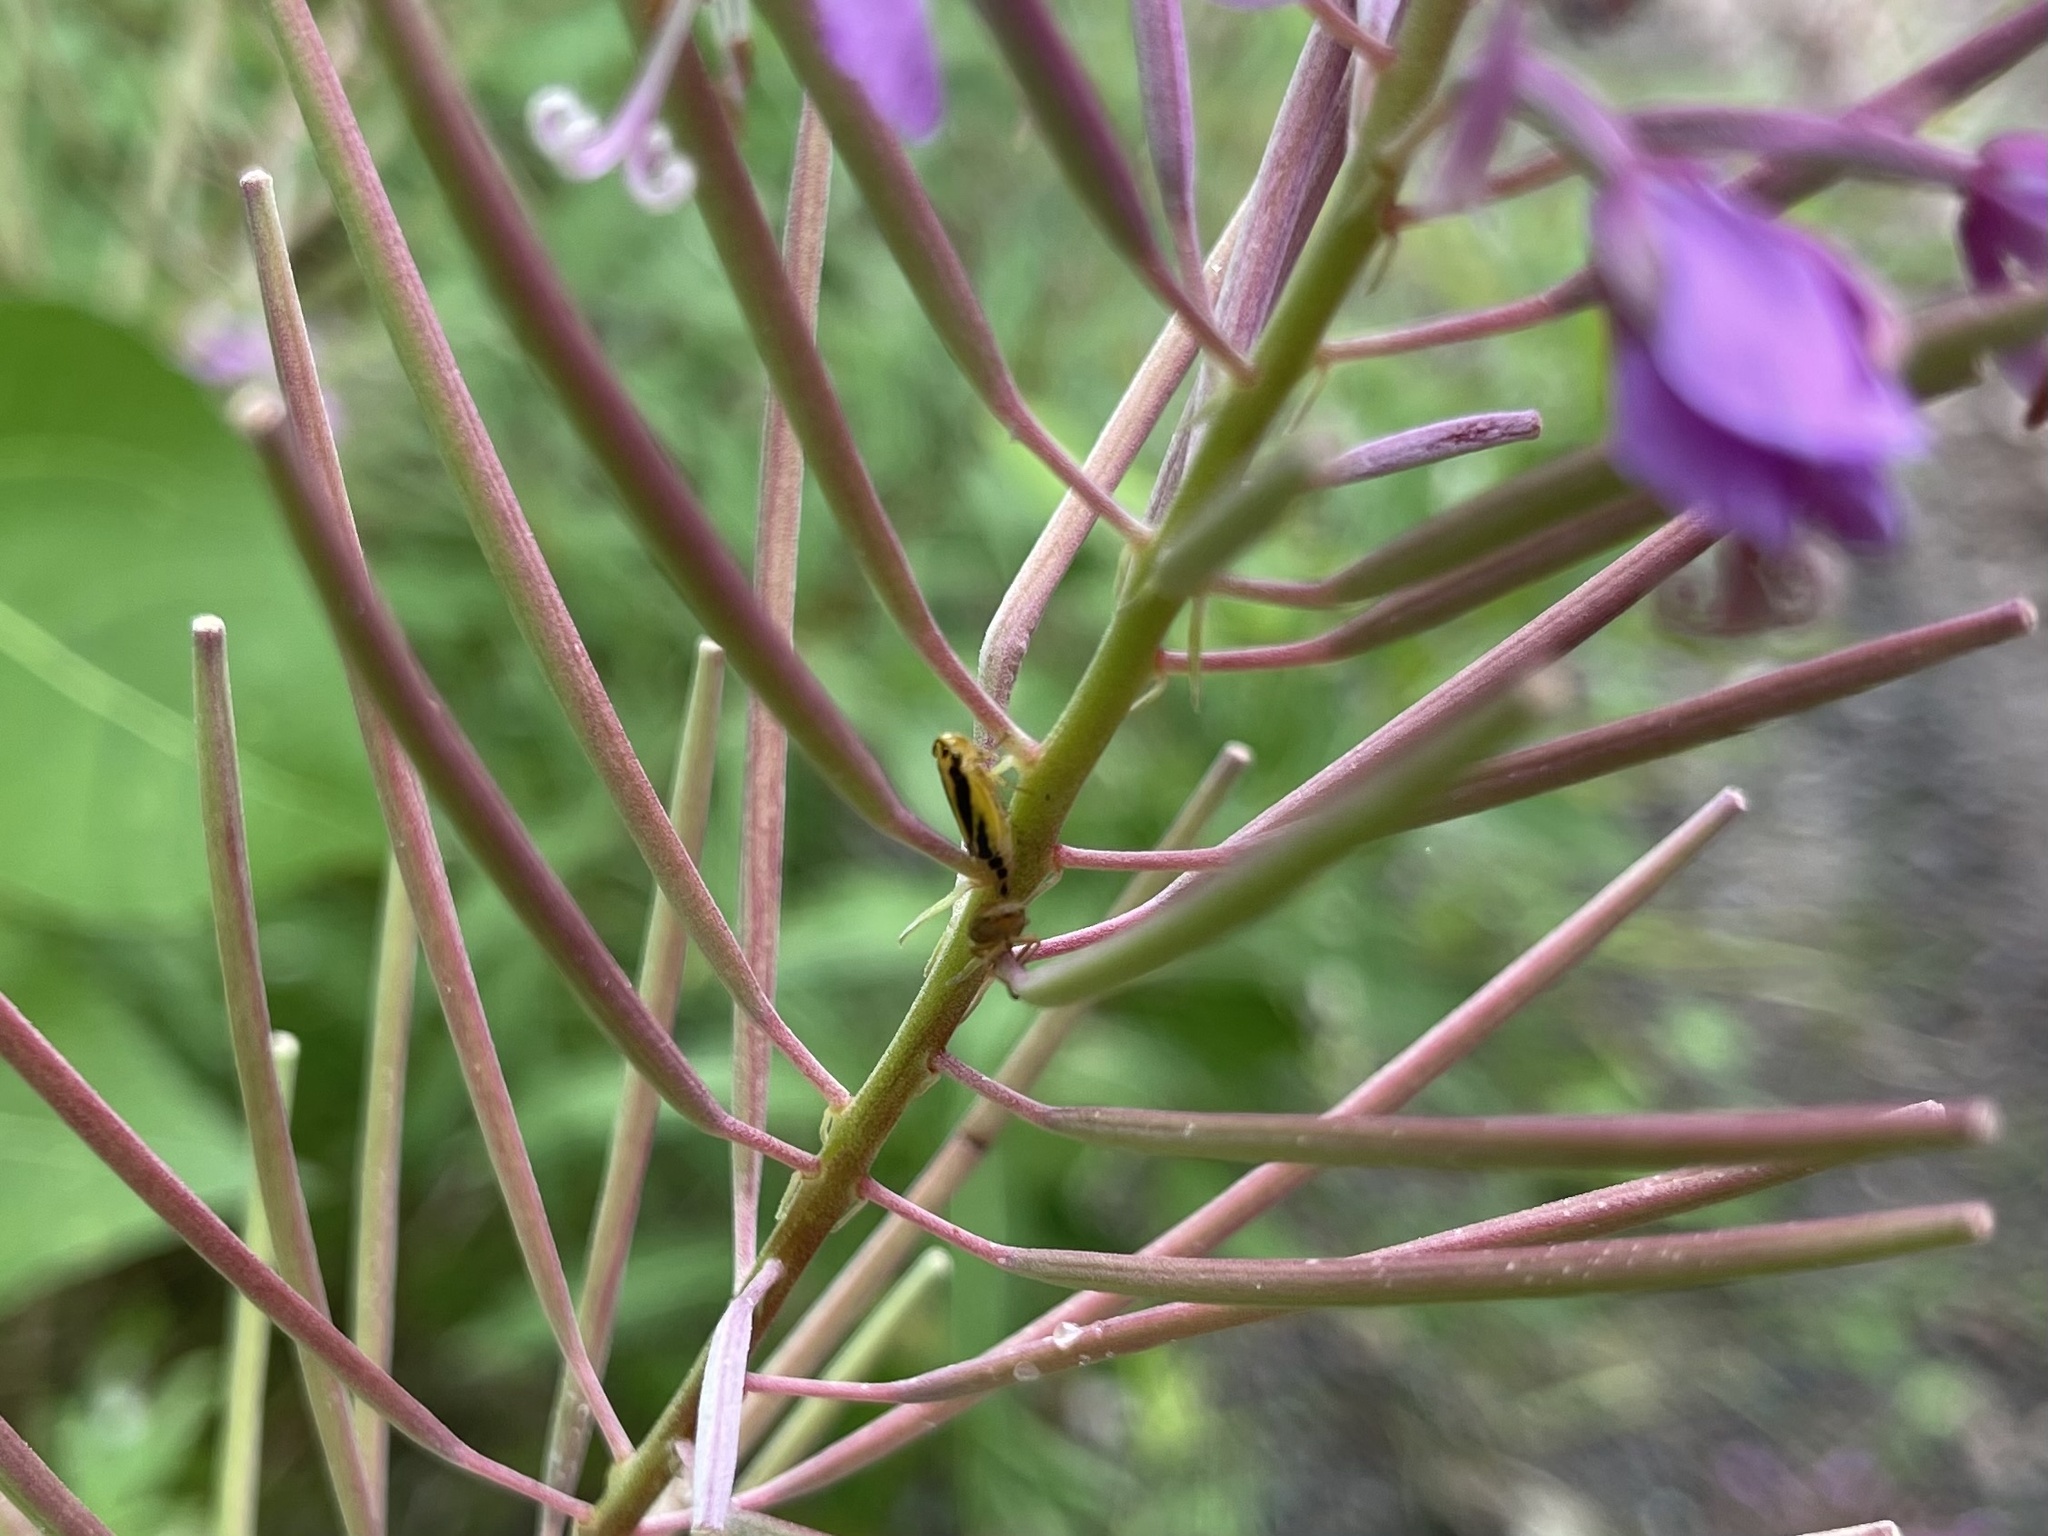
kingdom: Animalia
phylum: Arthropoda
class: Insecta
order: Hemiptera
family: Cicadellidae
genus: Evacanthus
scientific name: Evacanthus interruptus
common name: Leafhopper
